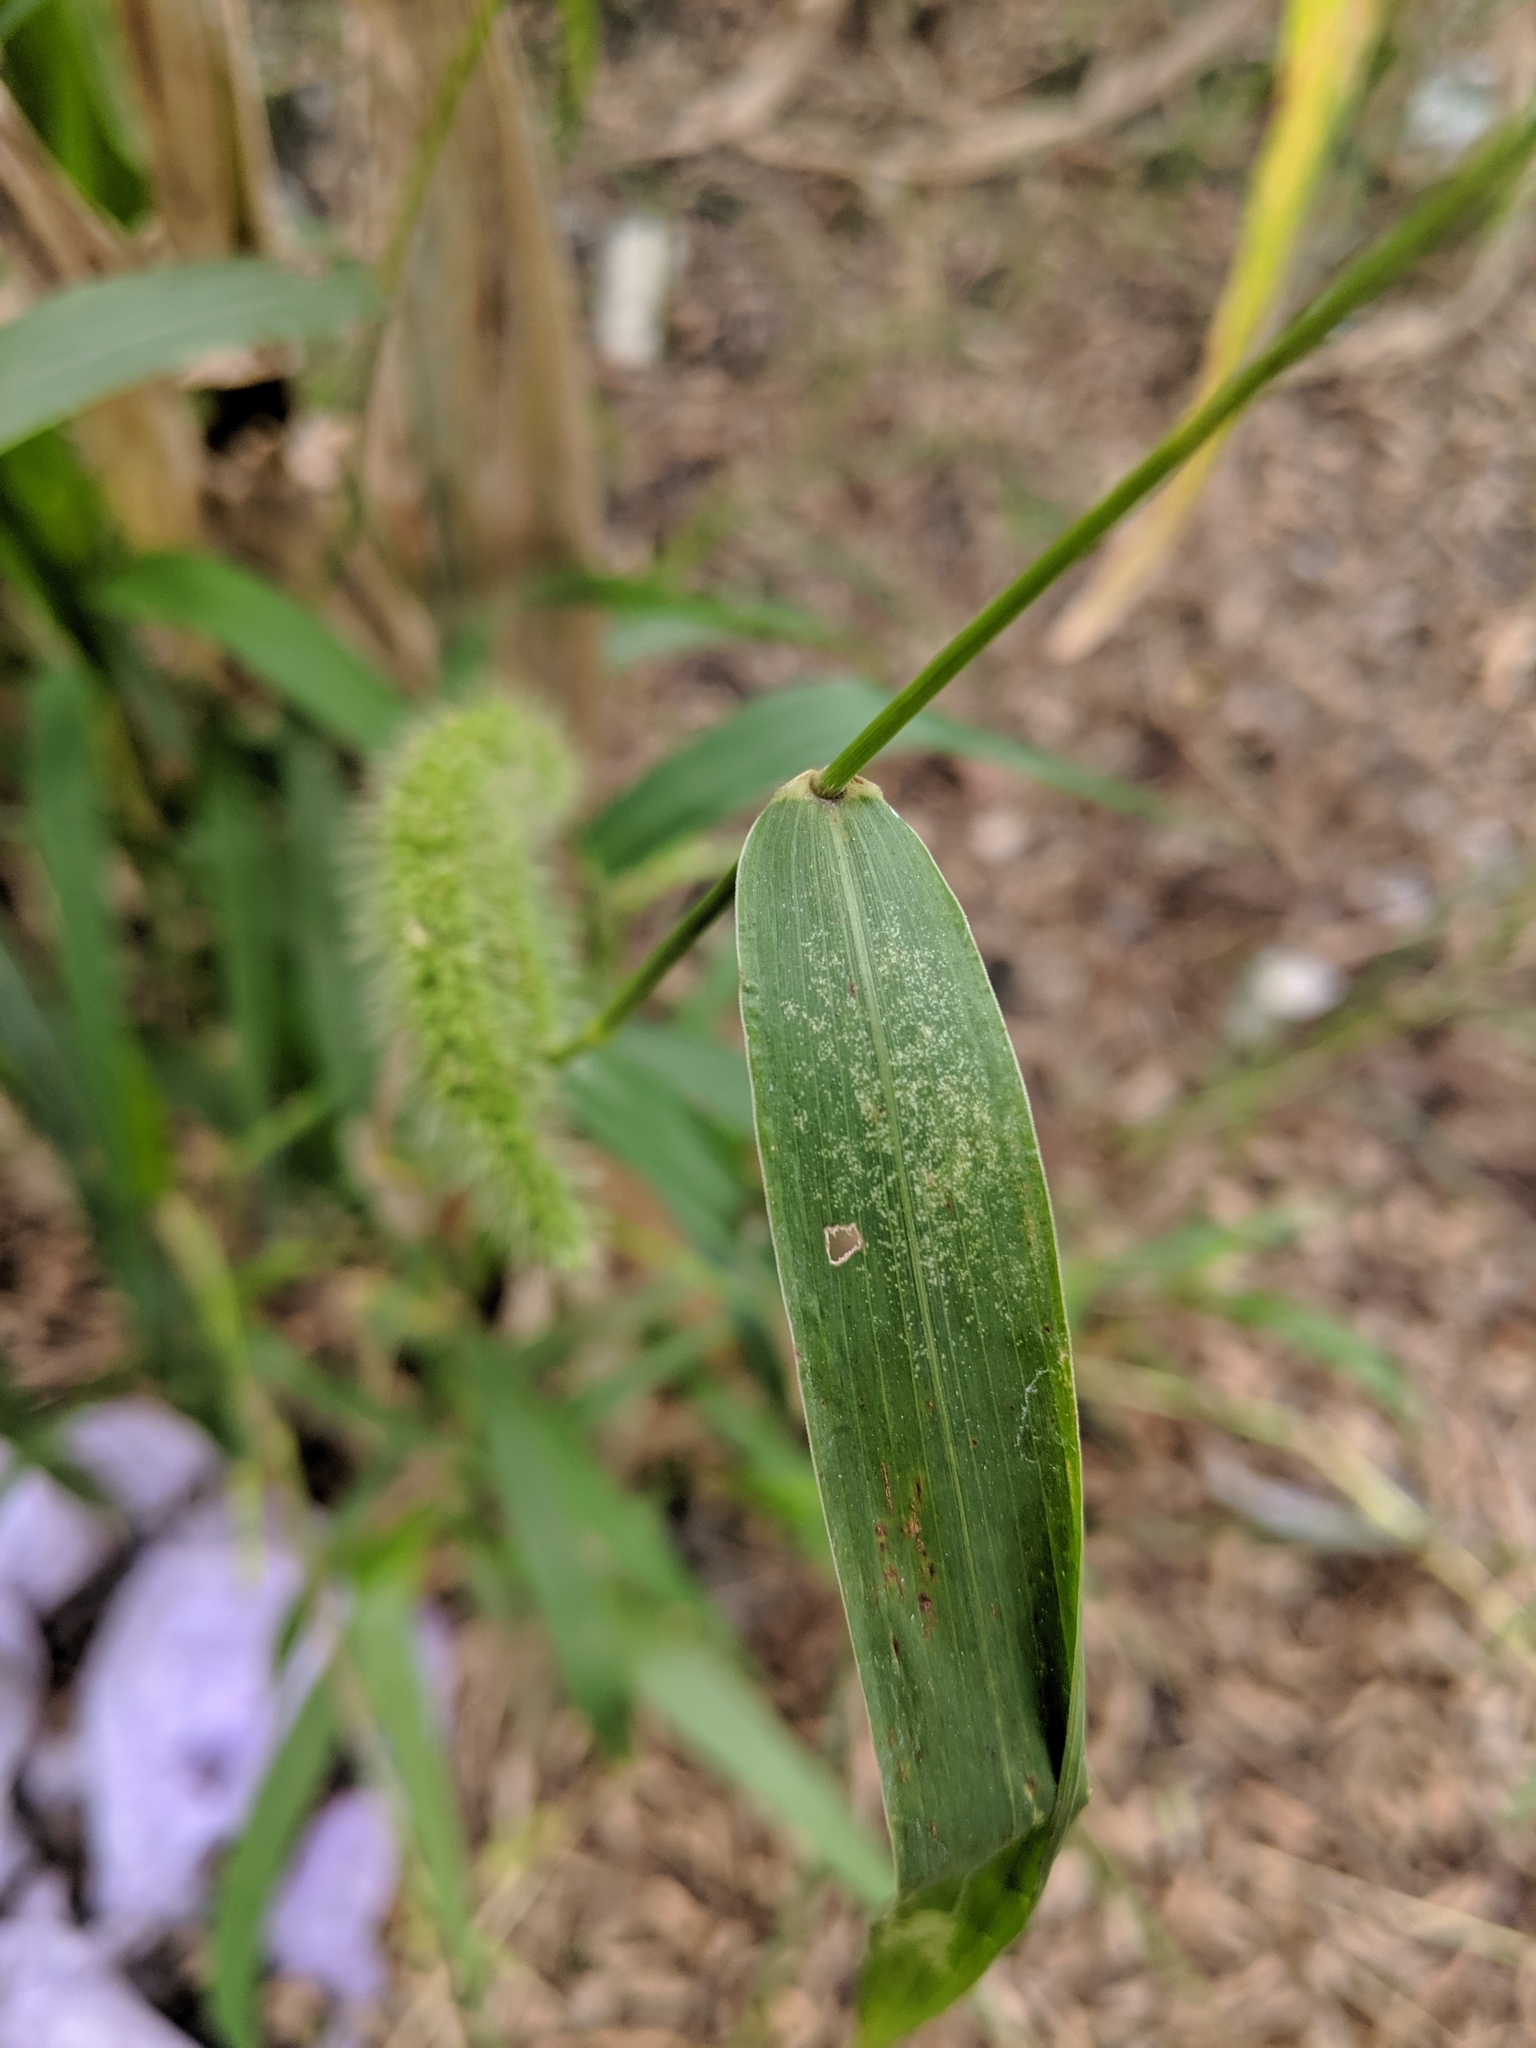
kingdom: Plantae
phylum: Tracheophyta
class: Liliopsida
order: Poales
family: Poaceae
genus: Setaria
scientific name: Setaria verticillata
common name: Hooked bristlegrass
